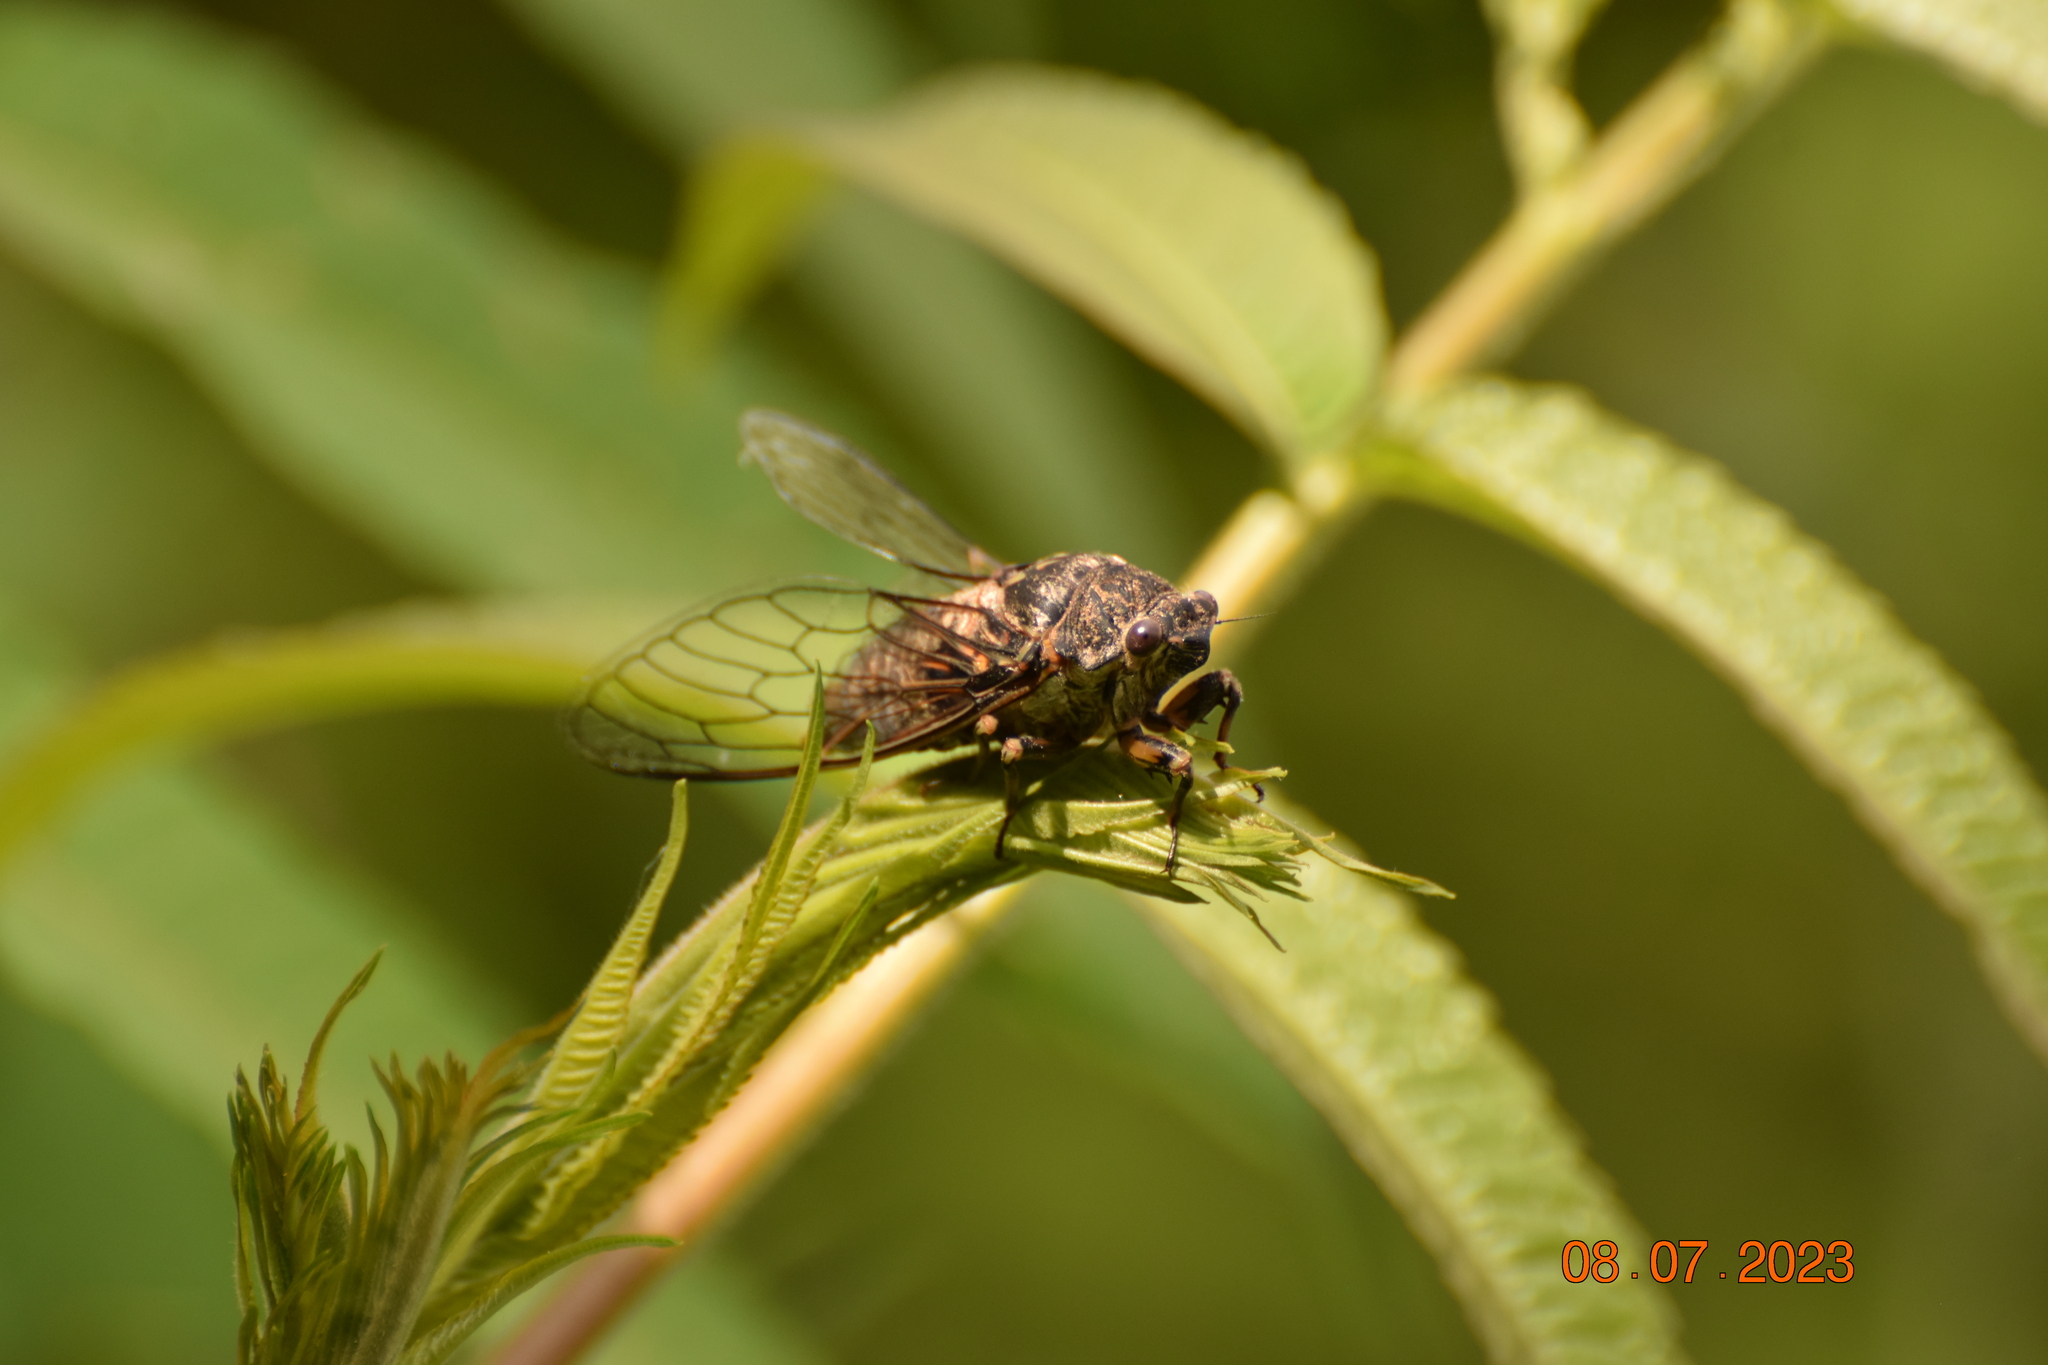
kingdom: Animalia
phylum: Arthropoda
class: Insecta
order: Hemiptera
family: Cicadidae
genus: Okanagana
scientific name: Okanagana canadensis
